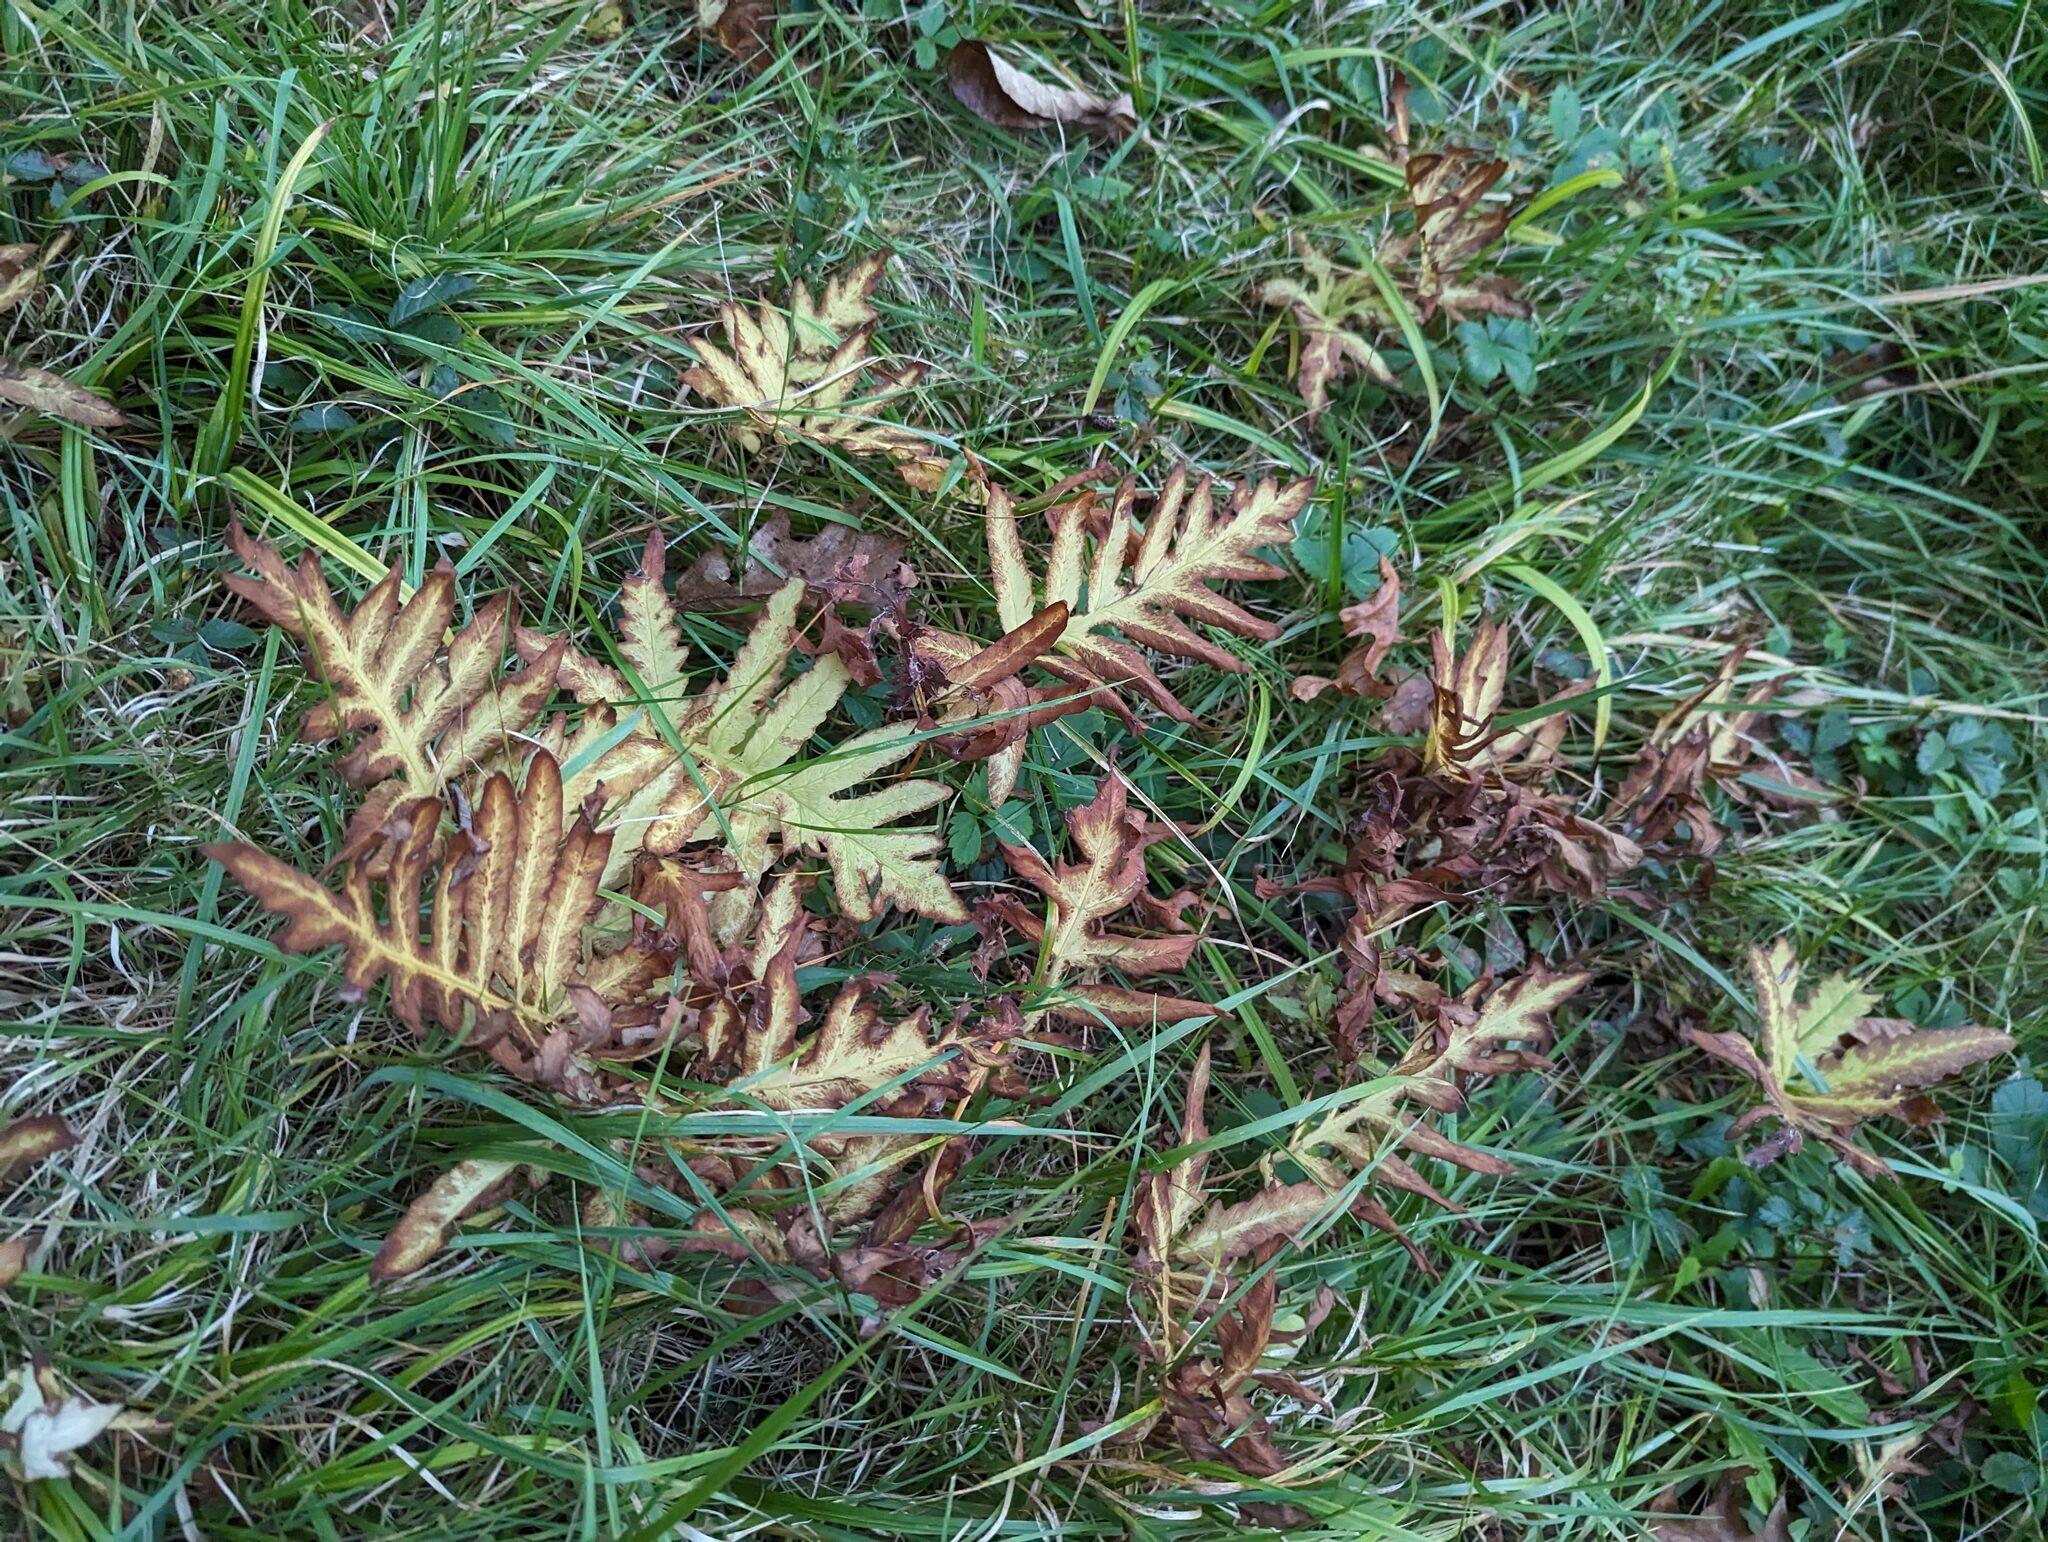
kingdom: Plantae
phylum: Tracheophyta
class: Polypodiopsida
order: Polypodiales
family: Onocleaceae
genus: Onoclea
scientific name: Onoclea sensibilis
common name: Sensitive fern
